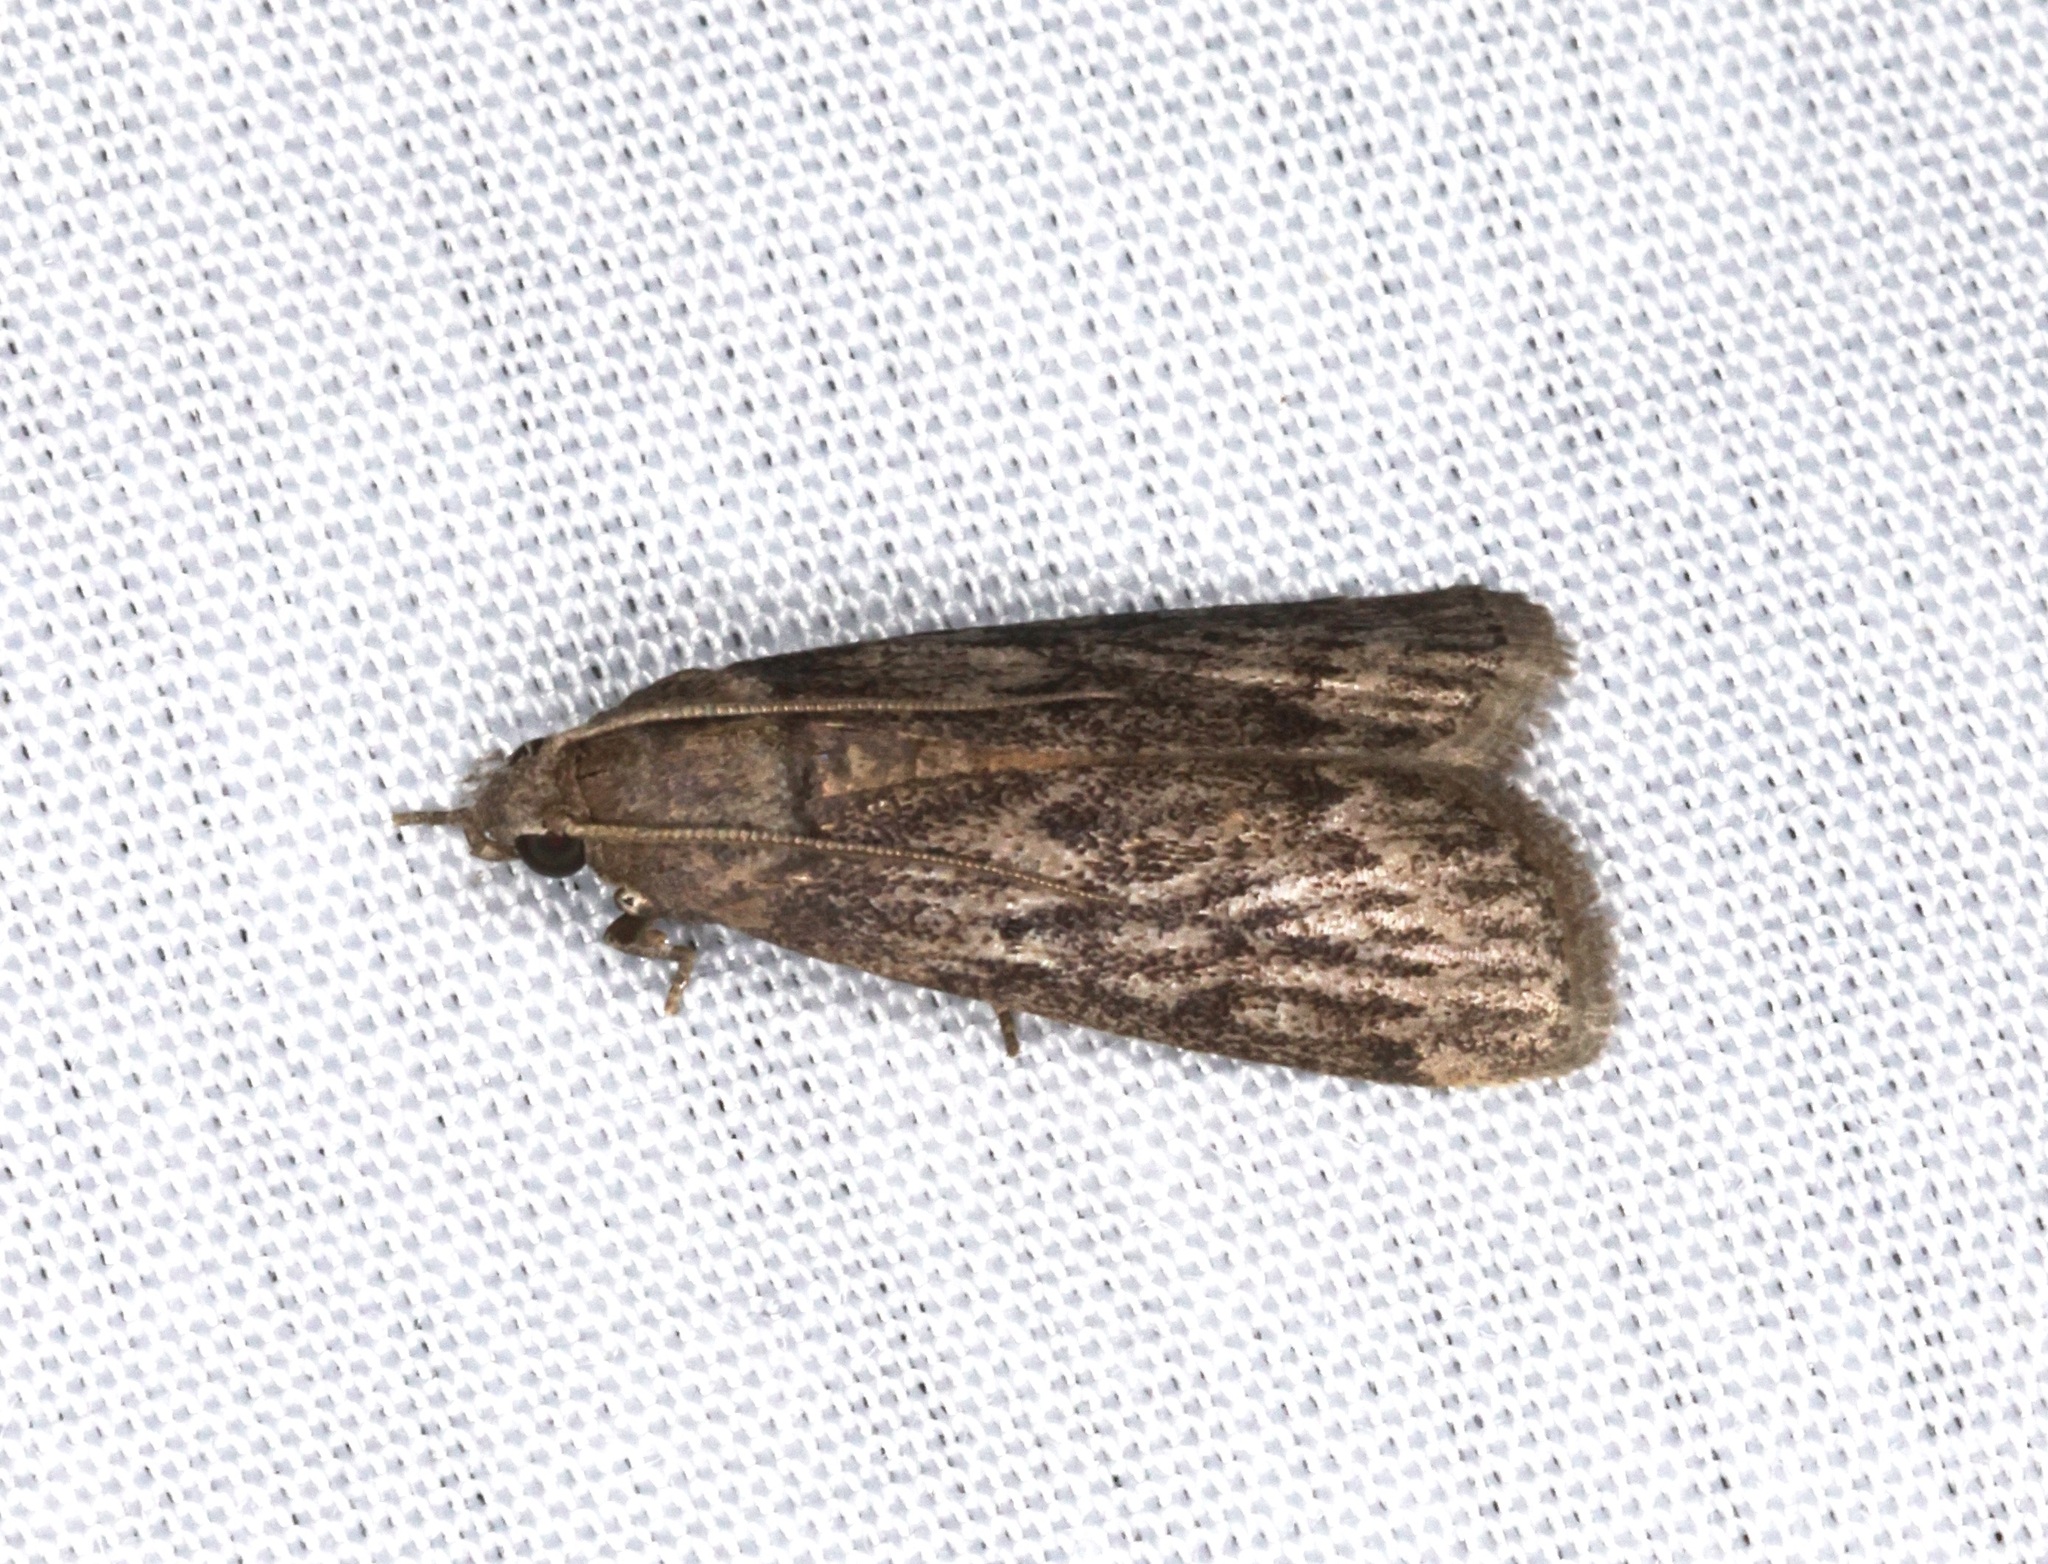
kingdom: Animalia
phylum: Arthropoda
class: Insecta
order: Lepidoptera
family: Pyralidae
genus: Mussidia
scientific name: Mussidia pectinicornella
